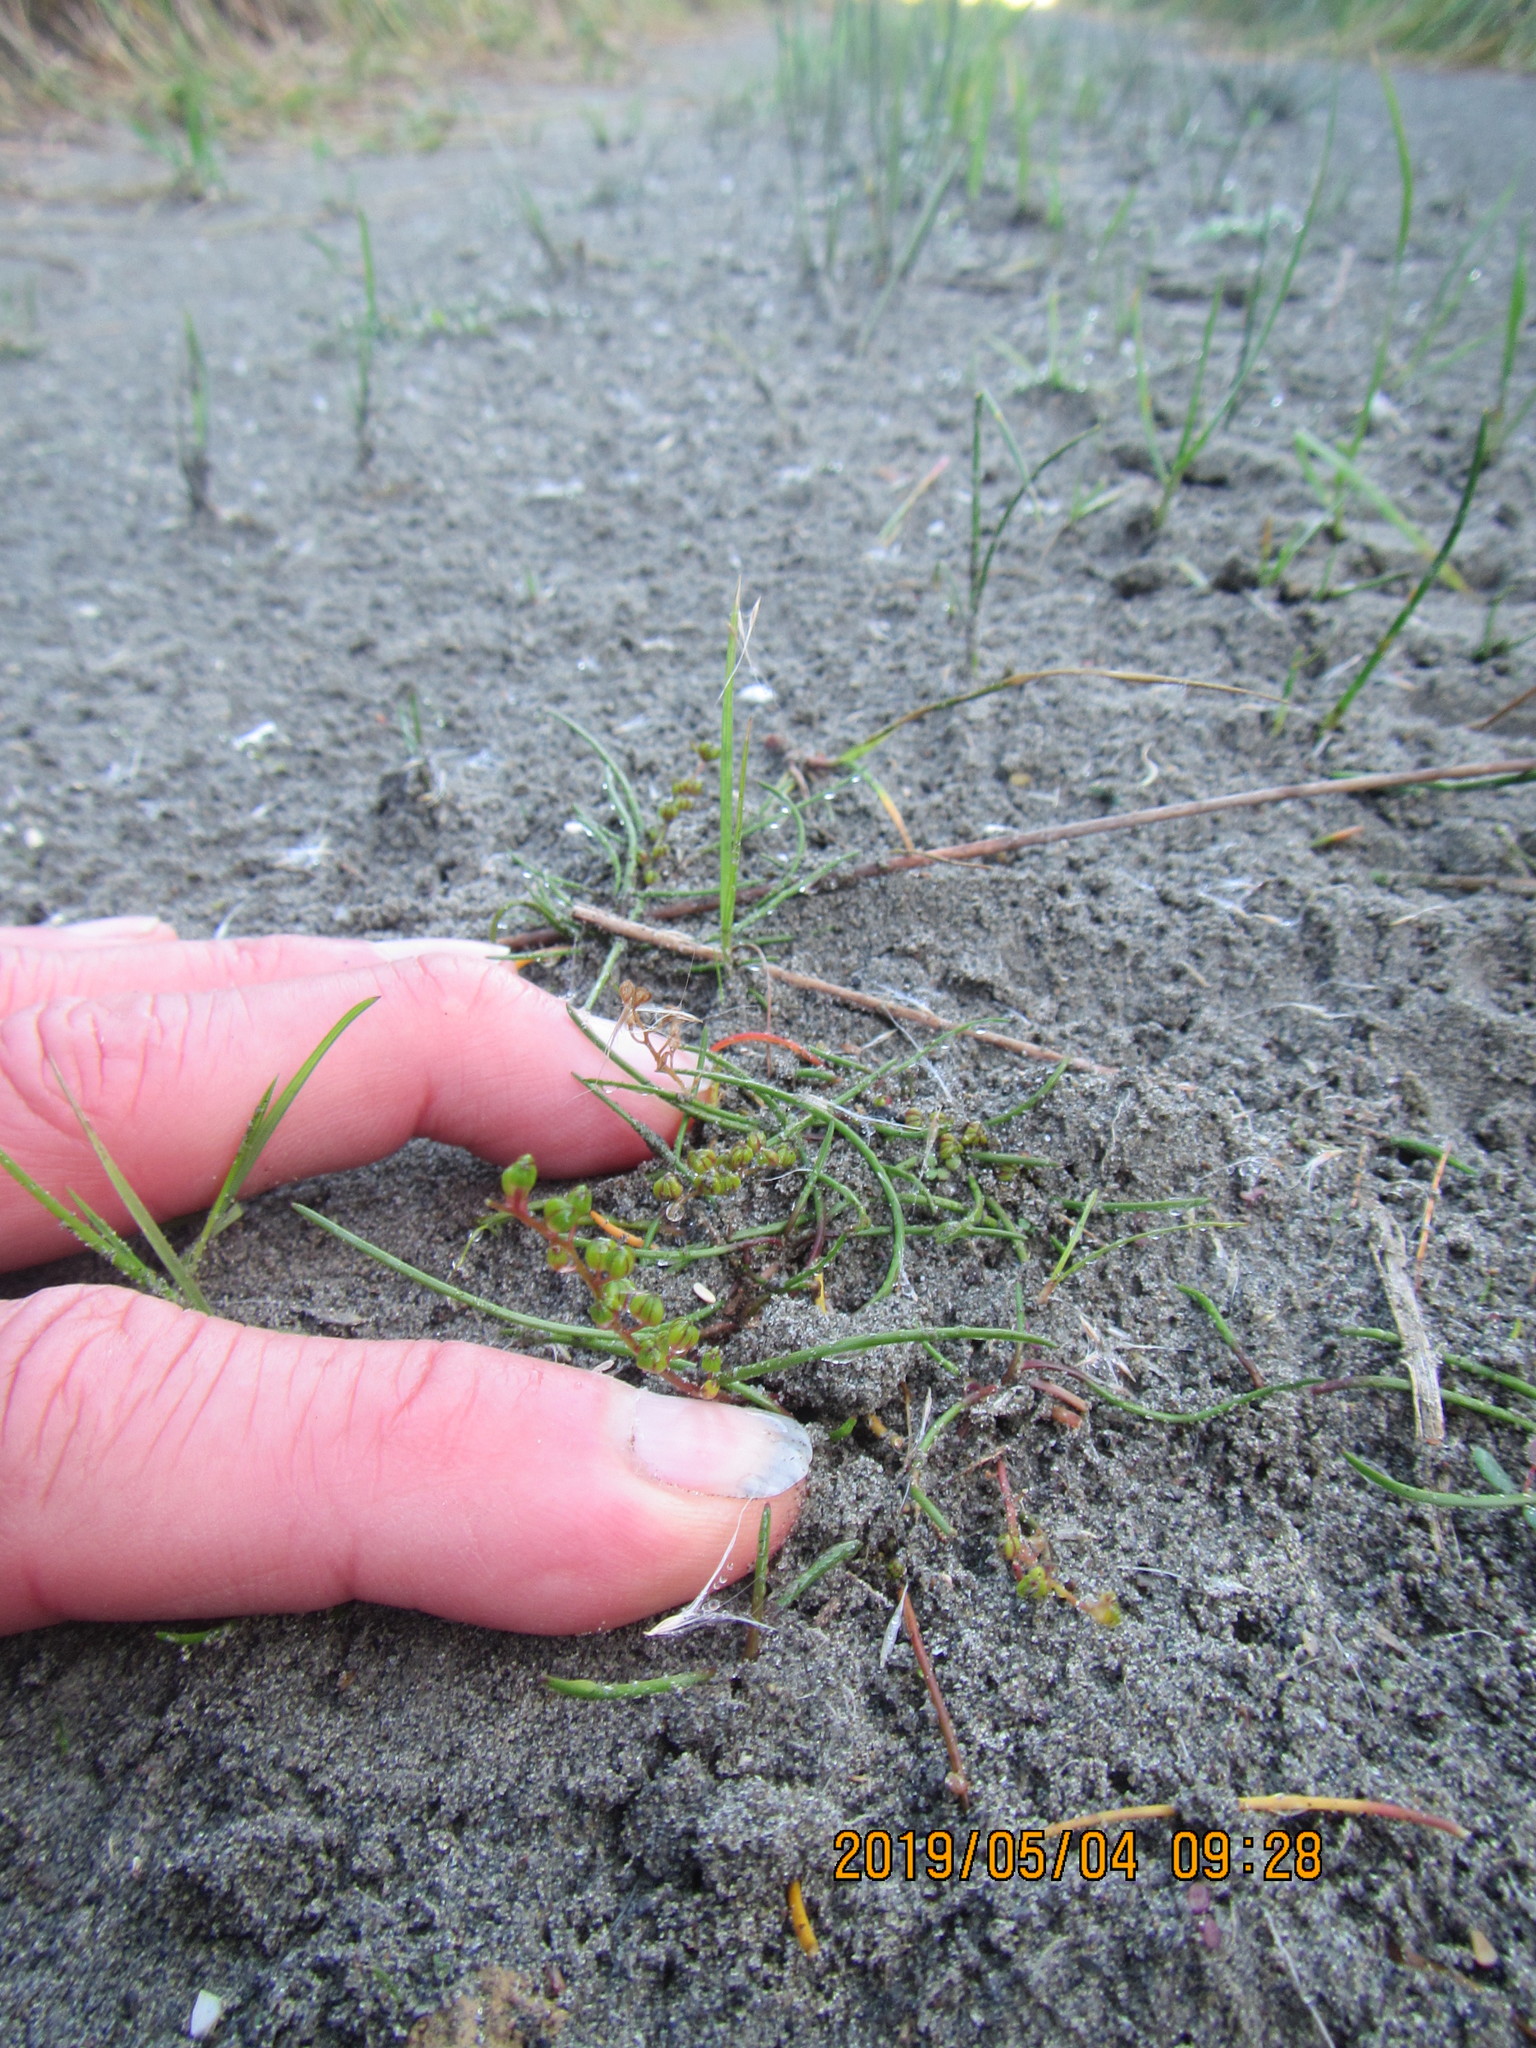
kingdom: Plantae
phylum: Tracheophyta
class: Liliopsida
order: Alismatales
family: Juncaginaceae
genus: Triglochin
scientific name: Triglochin striata
